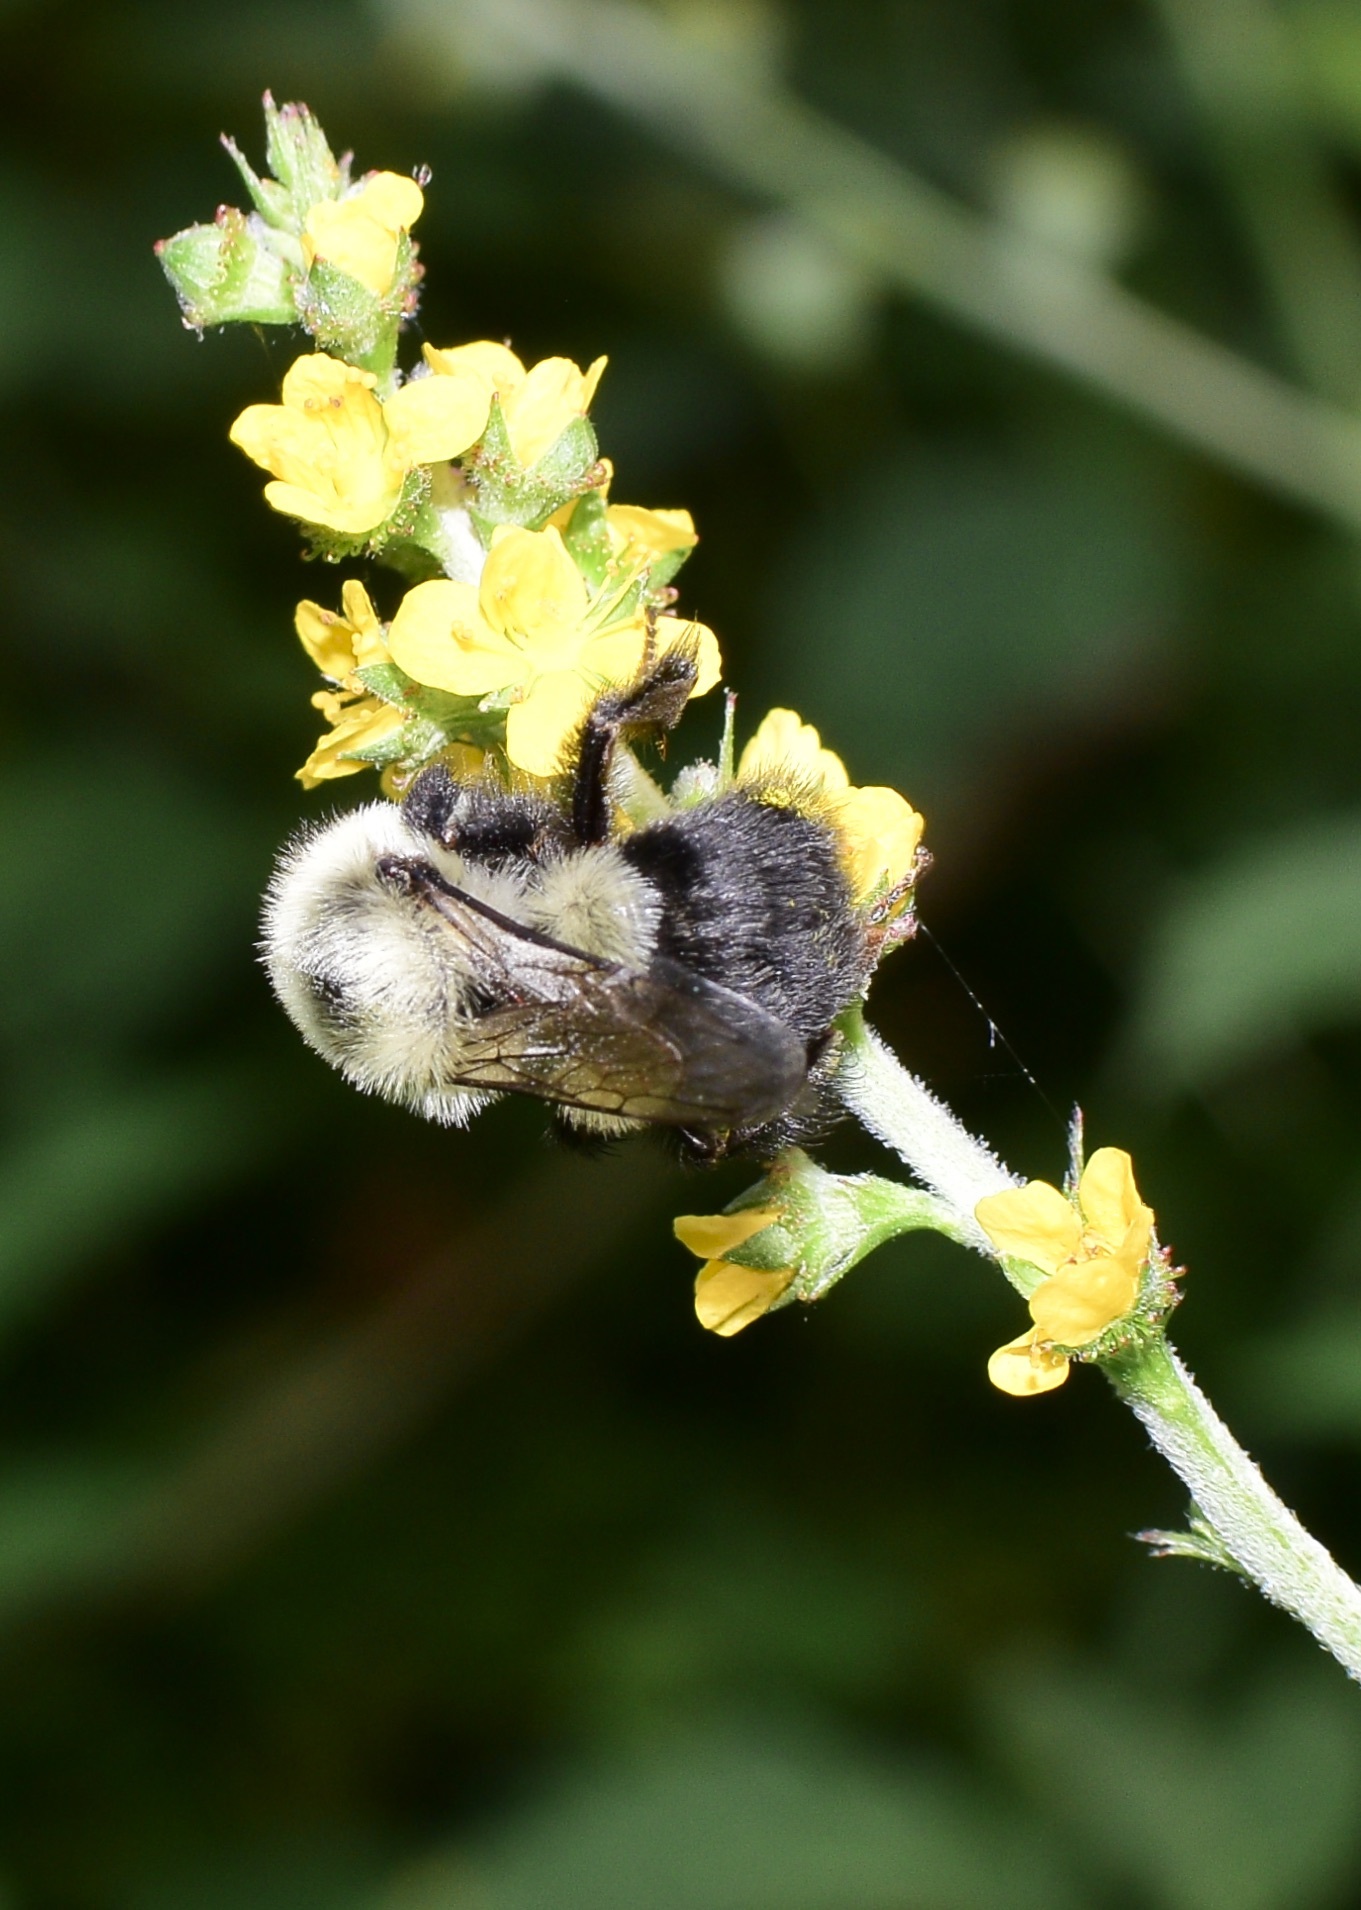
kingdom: Animalia
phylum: Arthropoda
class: Insecta
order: Hymenoptera
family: Apidae
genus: Bombus
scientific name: Bombus impatiens
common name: Common eastern bumble bee
